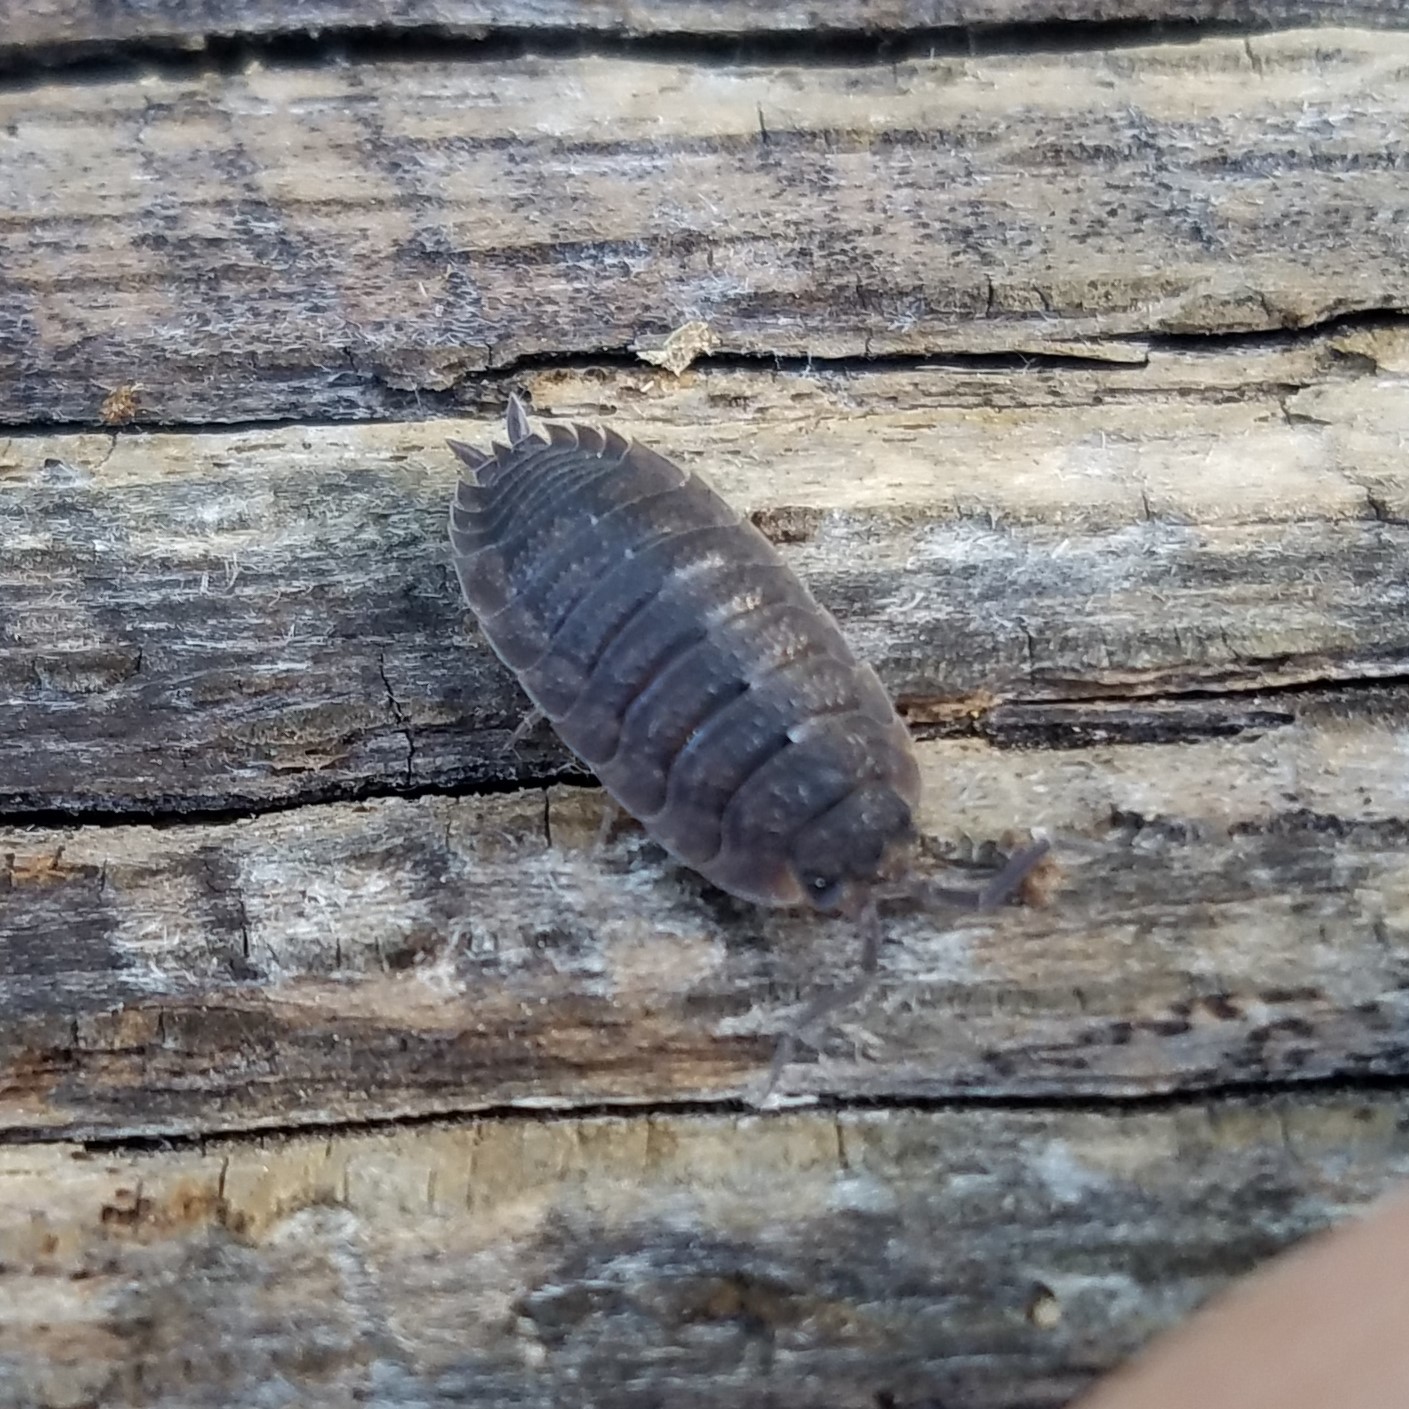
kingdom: Animalia
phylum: Arthropoda
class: Malacostraca
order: Isopoda
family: Porcellionidae
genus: Porcellio
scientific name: Porcellio scaber
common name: Common rough woodlouse
